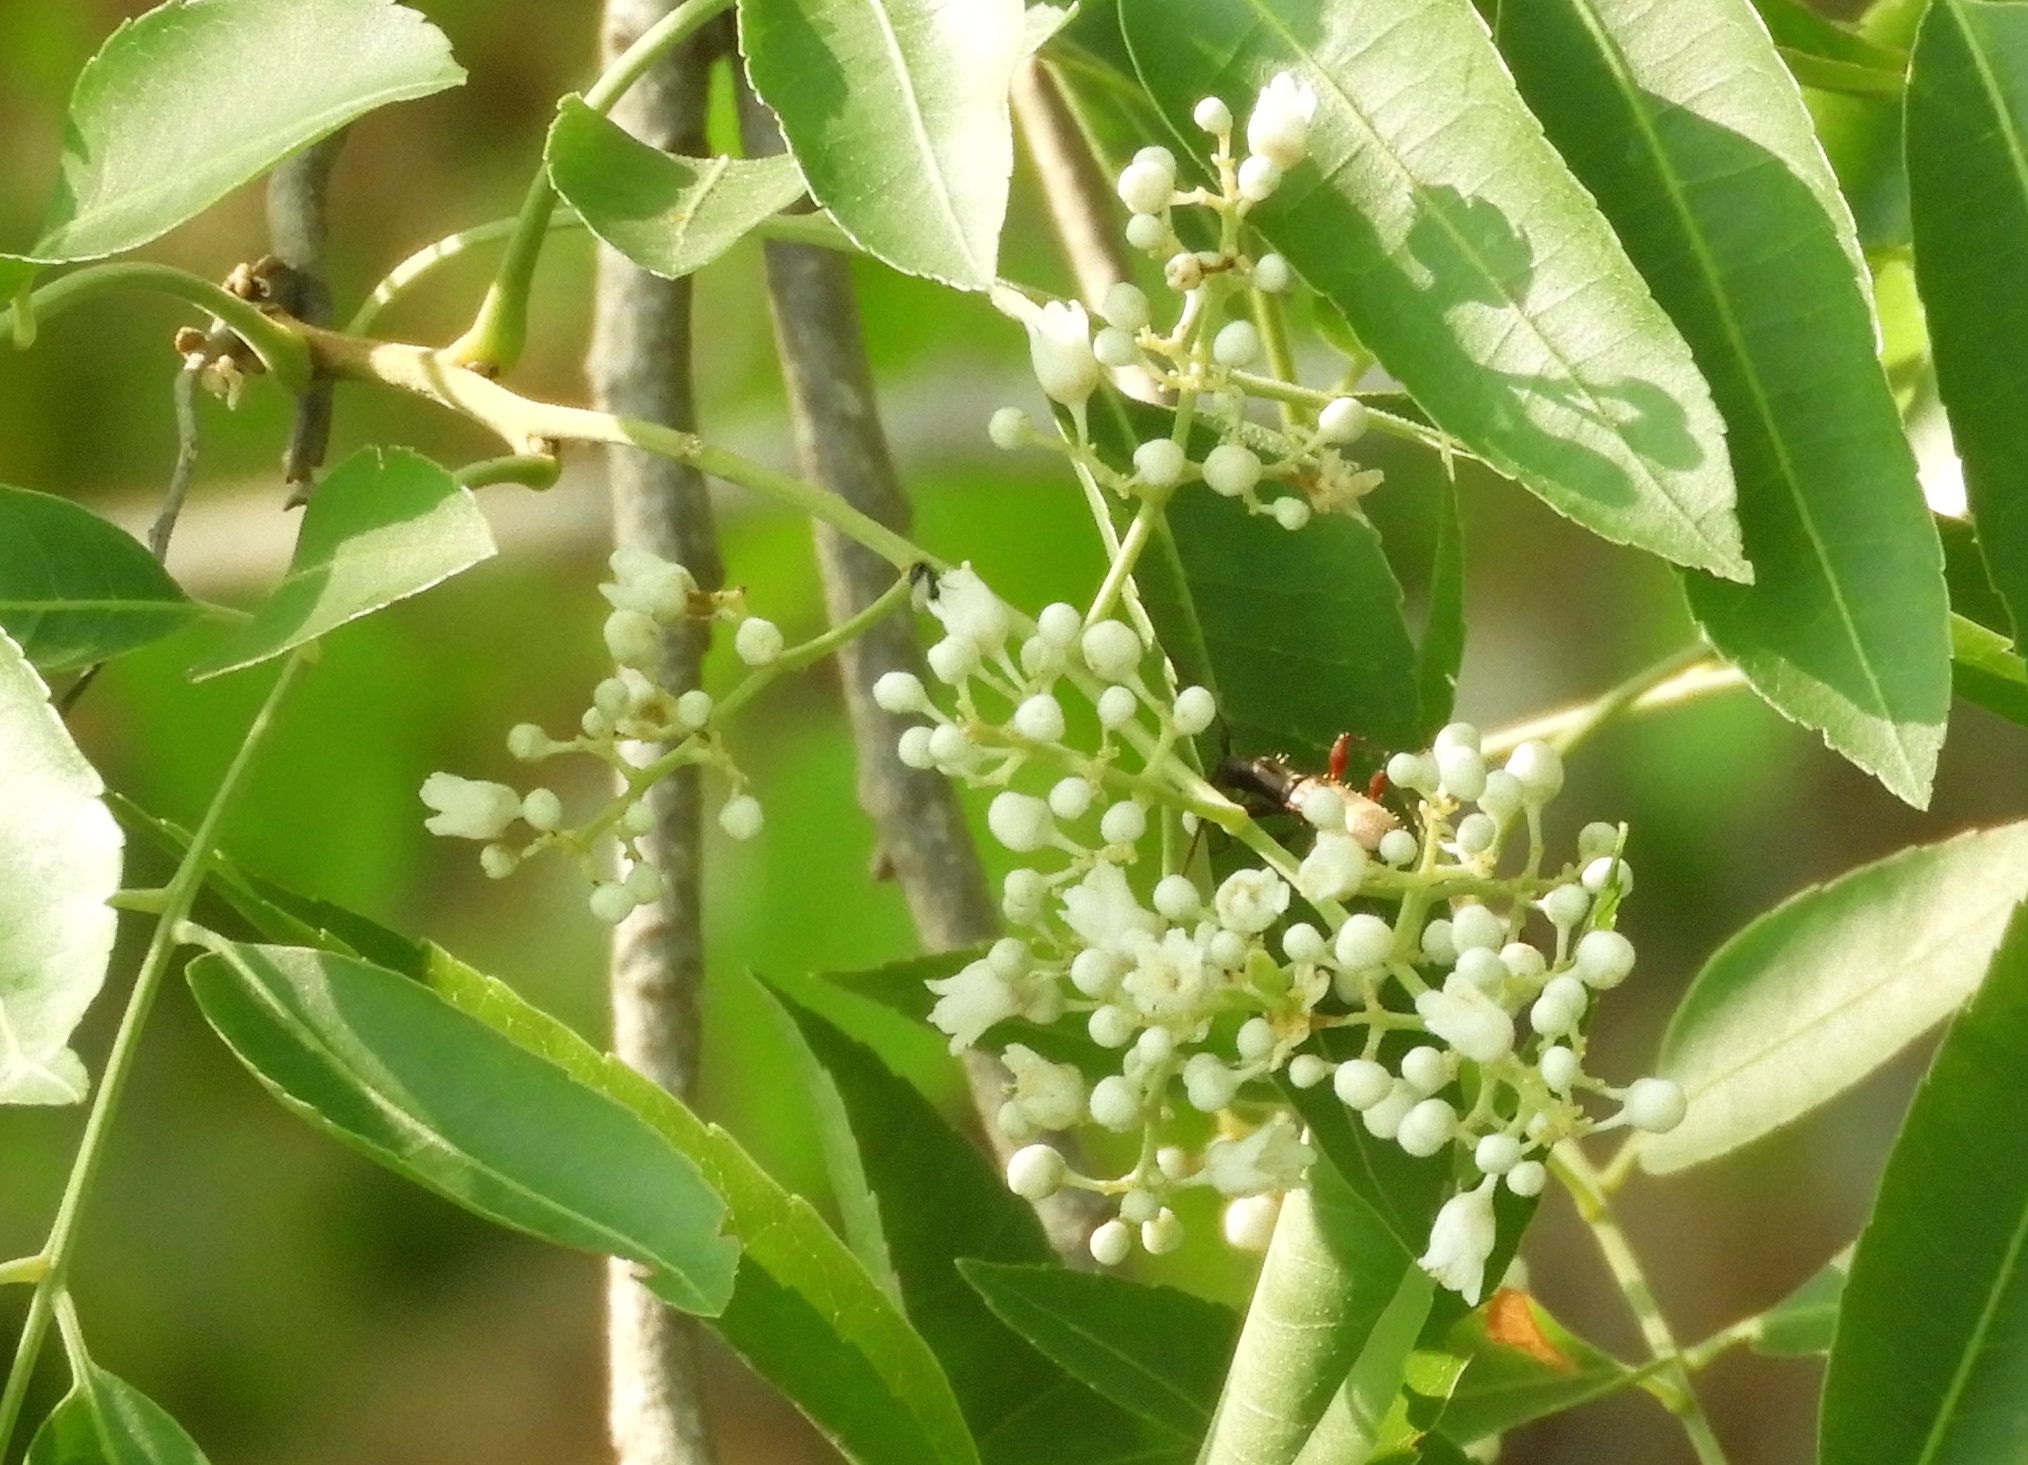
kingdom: Plantae
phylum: Tracheophyta
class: Magnoliopsida
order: Sapindales
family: Sapindaceae
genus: Thouinidium
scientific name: Thouinidium decandrum
